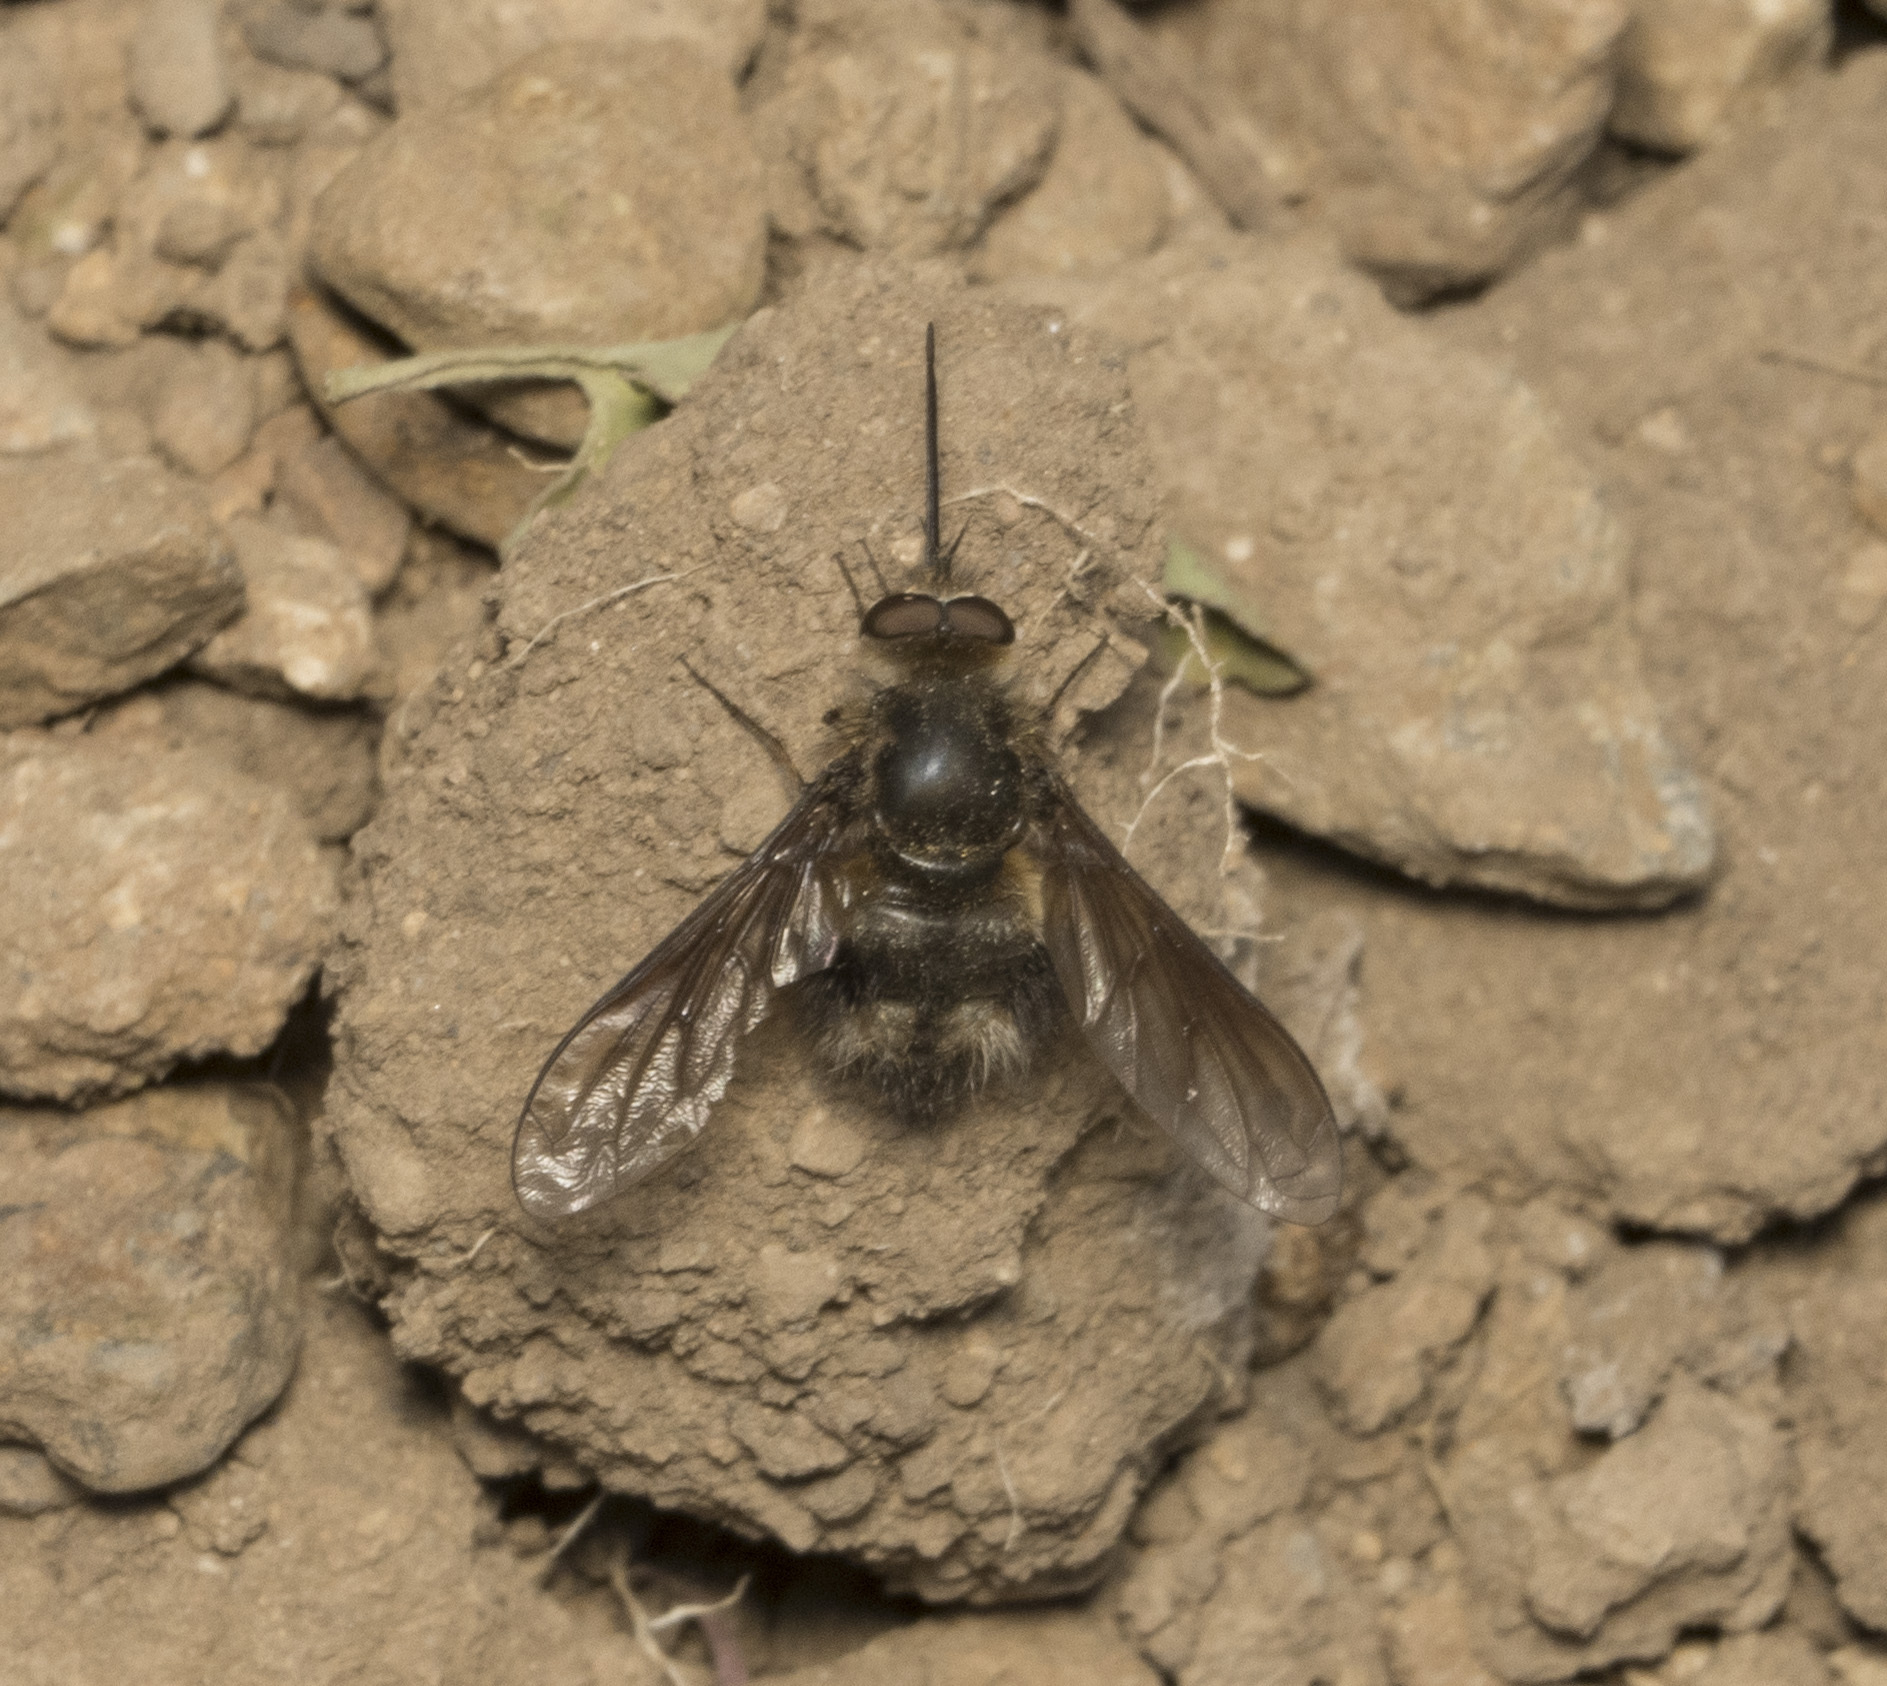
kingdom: Animalia
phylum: Arthropoda
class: Insecta
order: Diptera
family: Bombyliidae
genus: Triploechus
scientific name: Triploechus bellus
